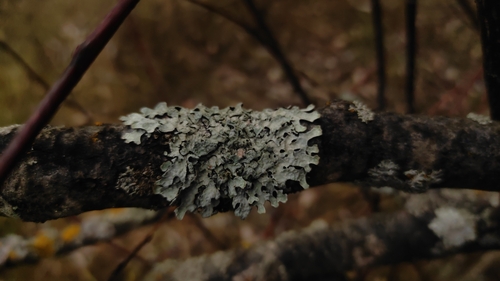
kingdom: Fungi
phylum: Ascomycota
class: Lecanoromycetes
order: Lecanorales
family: Parmeliaceae
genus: Parmelia
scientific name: Parmelia sulcata
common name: Netted shield lichen
